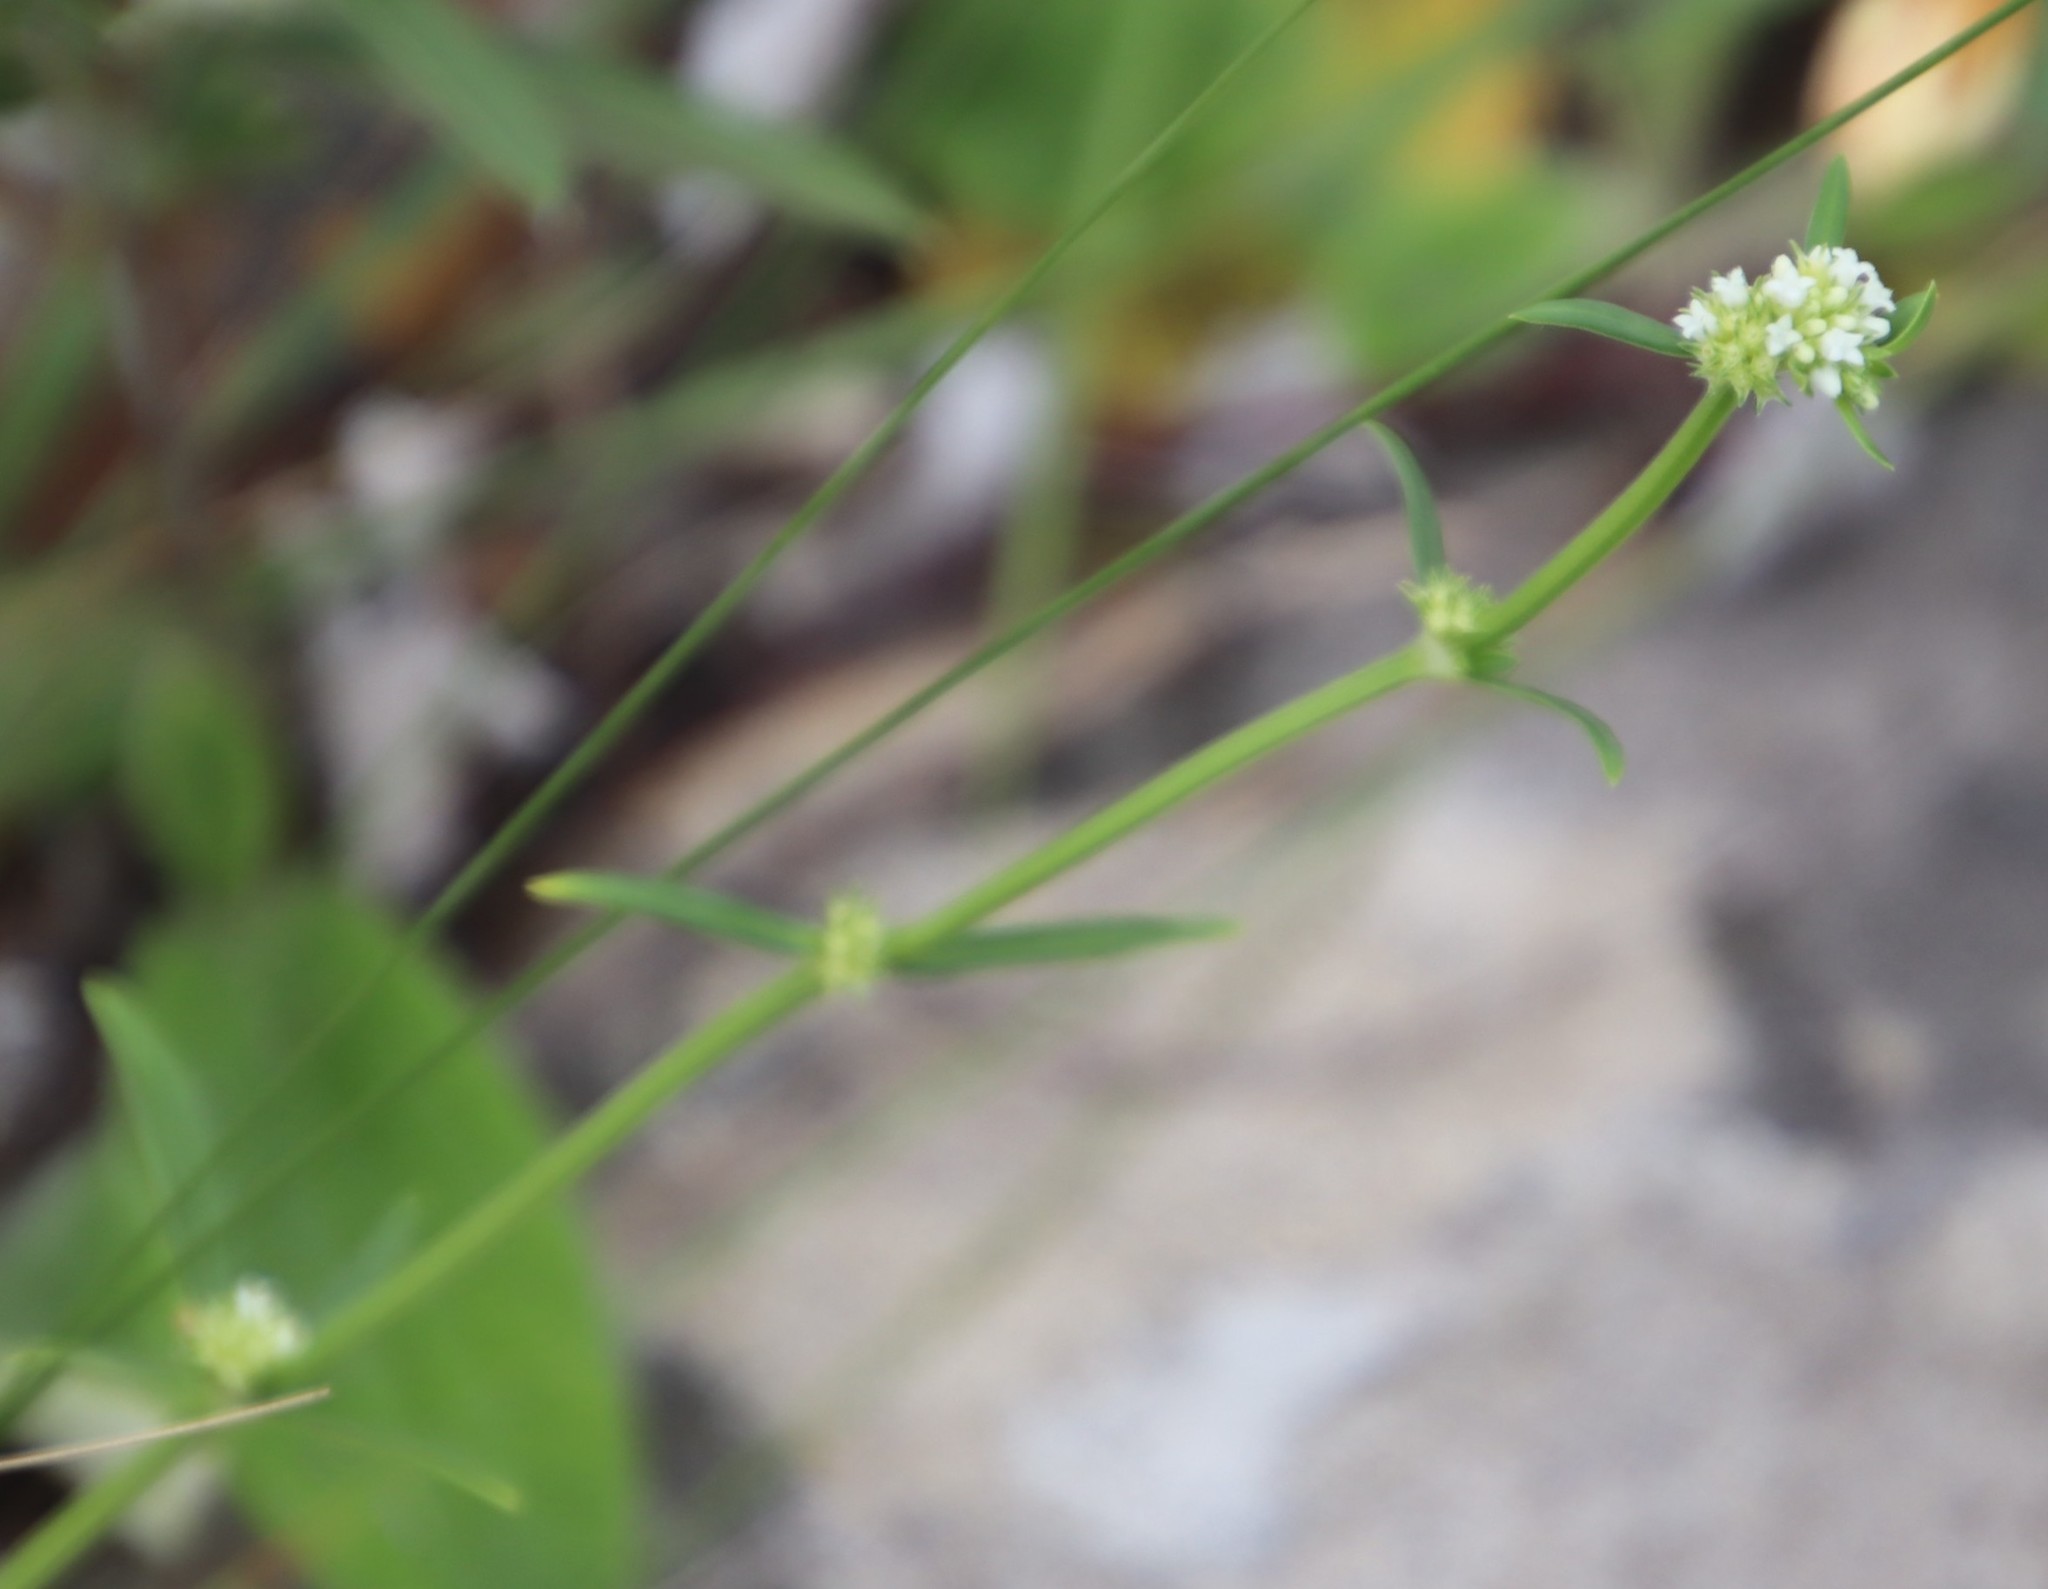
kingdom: Plantae
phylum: Tracheophyta
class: Magnoliopsida
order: Gentianales
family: Rubiaceae
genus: Spermacoce
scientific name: Spermacoce natalensis
